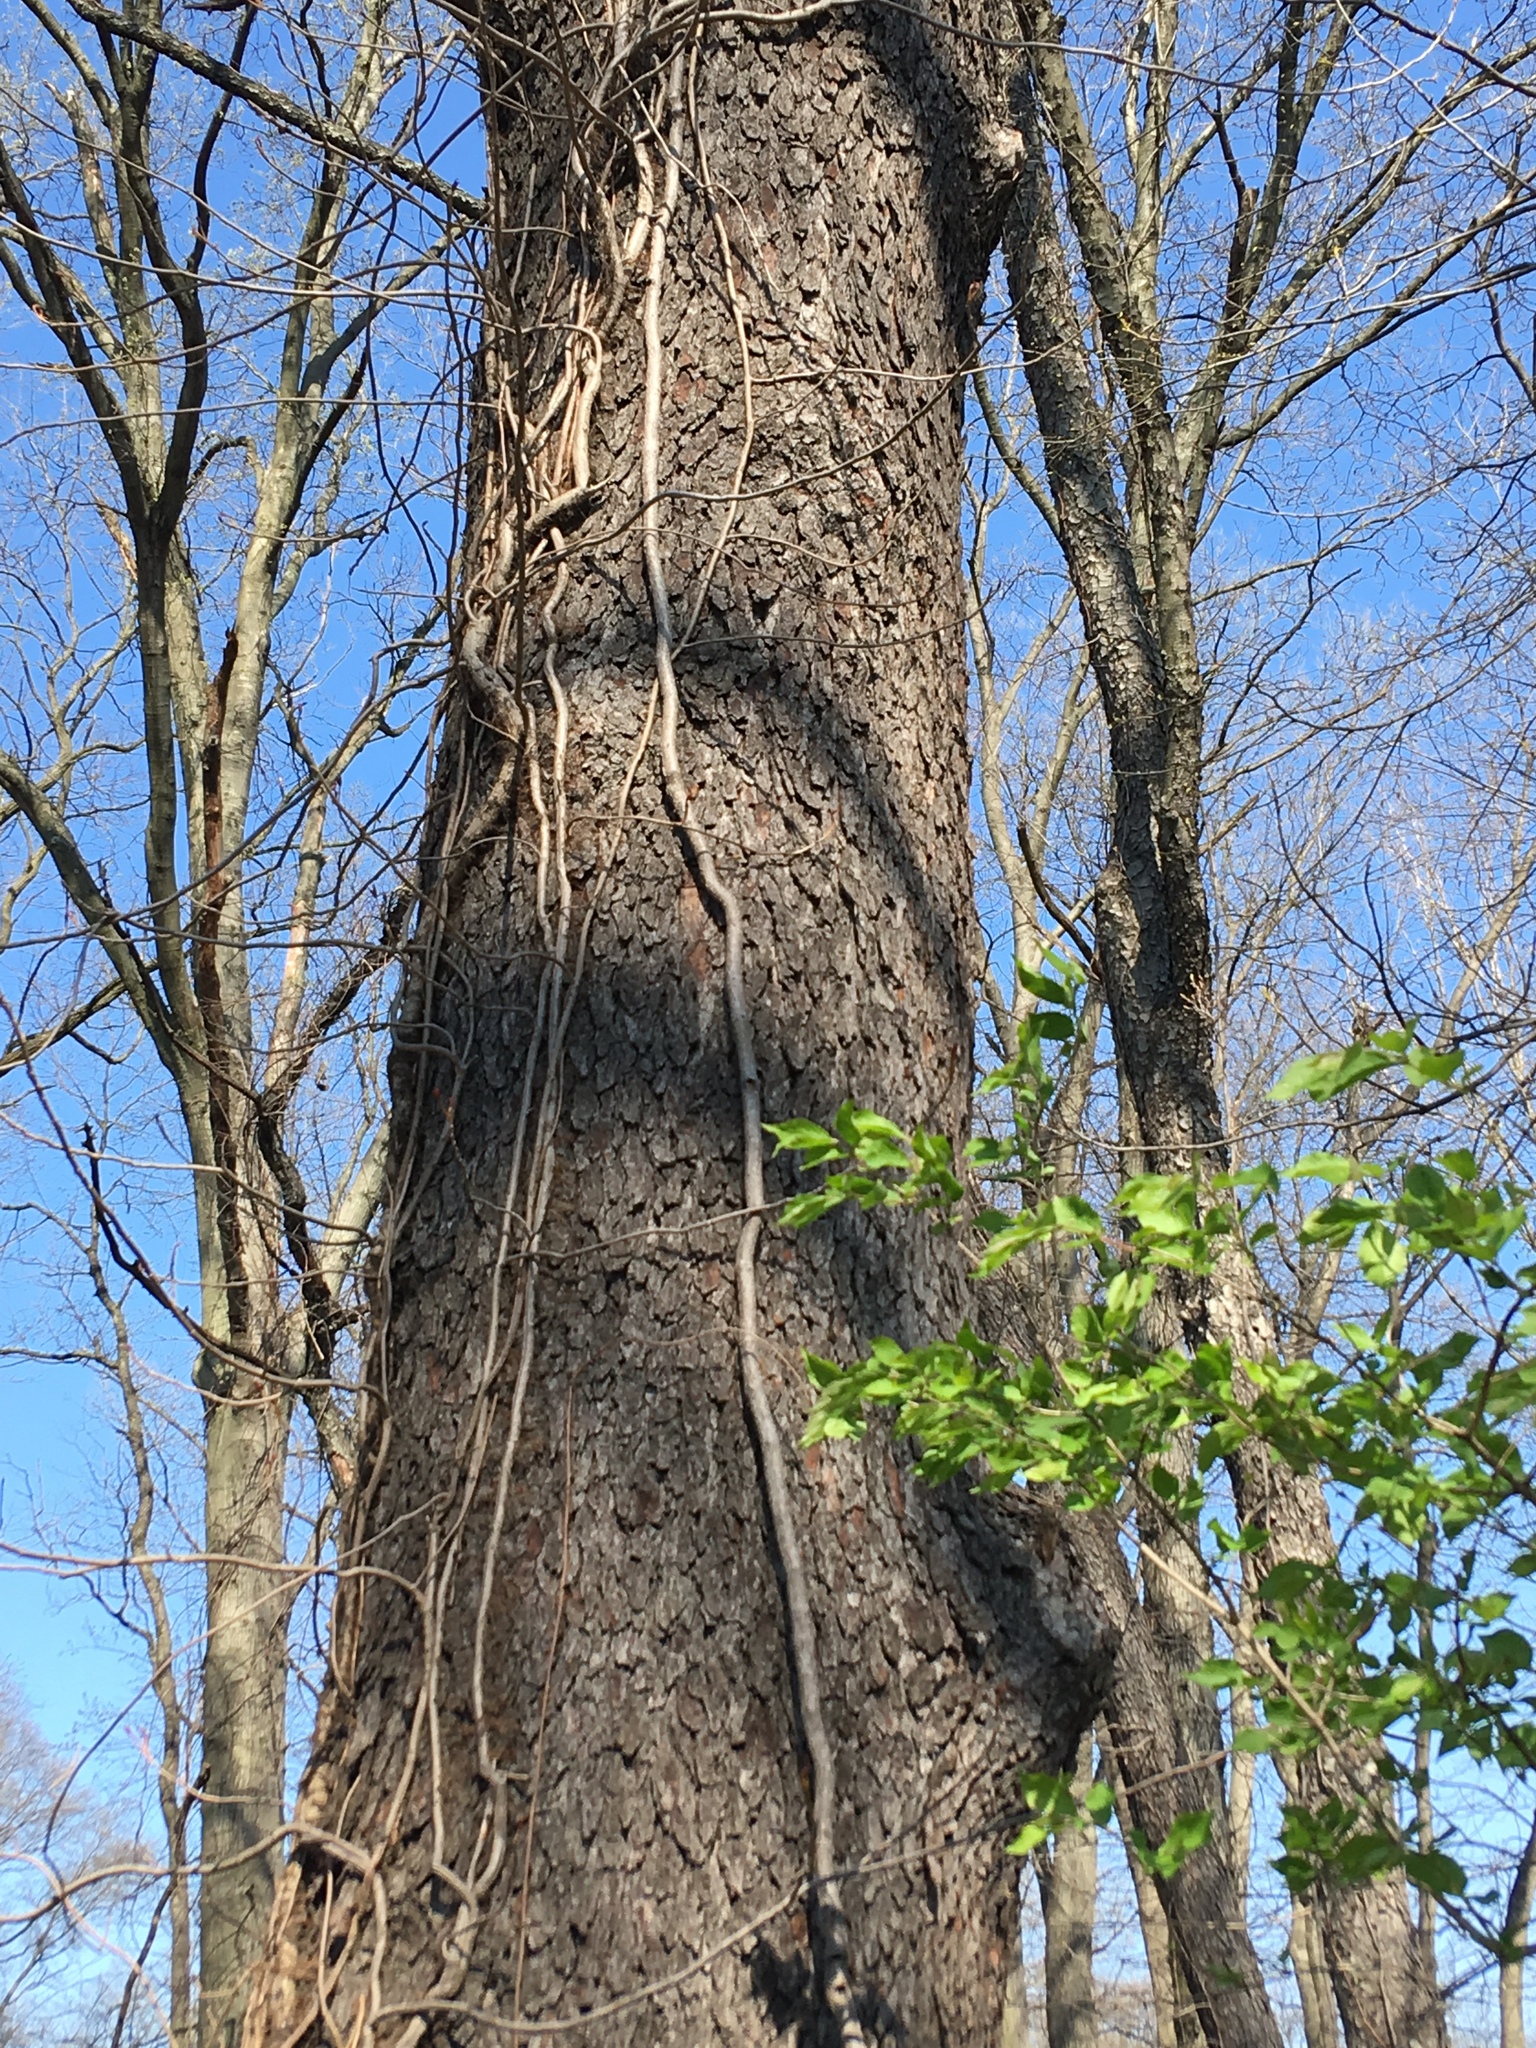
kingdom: Plantae
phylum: Tracheophyta
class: Magnoliopsida
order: Rosales
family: Rosaceae
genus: Prunus
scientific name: Prunus serotina
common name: Black cherry
